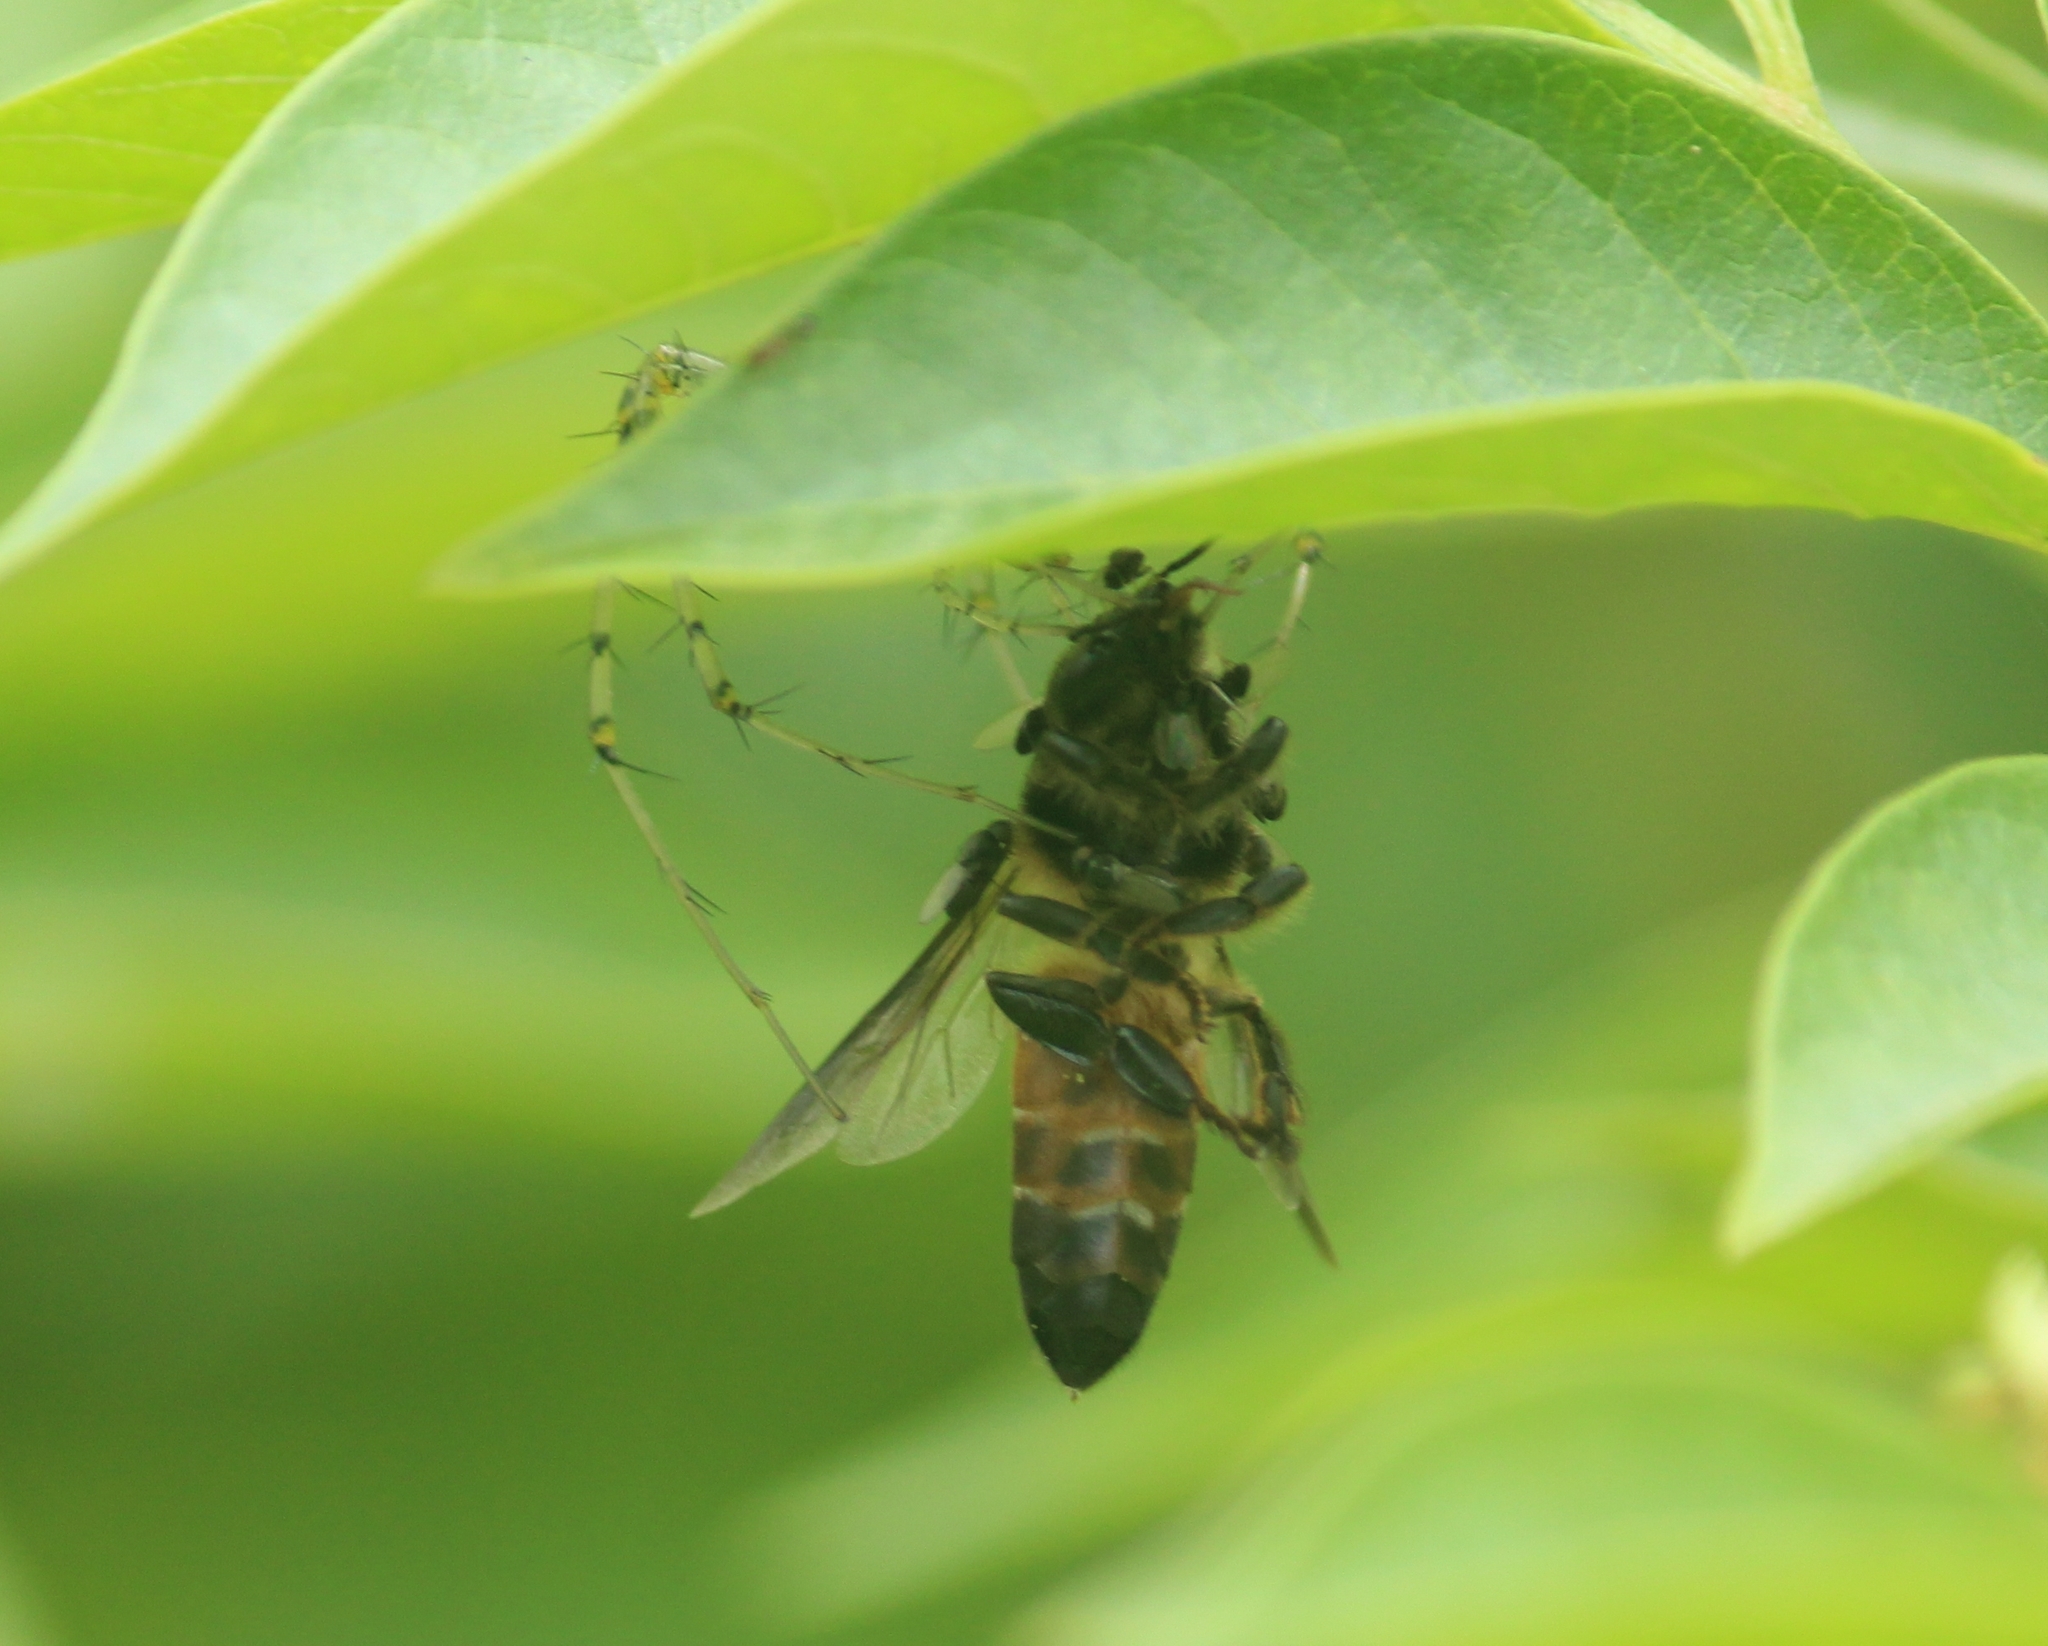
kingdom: Animalia
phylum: Arthropoda
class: Insecta
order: Hymenoptera
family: Apidae
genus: Apis
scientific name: Apis dorsata
